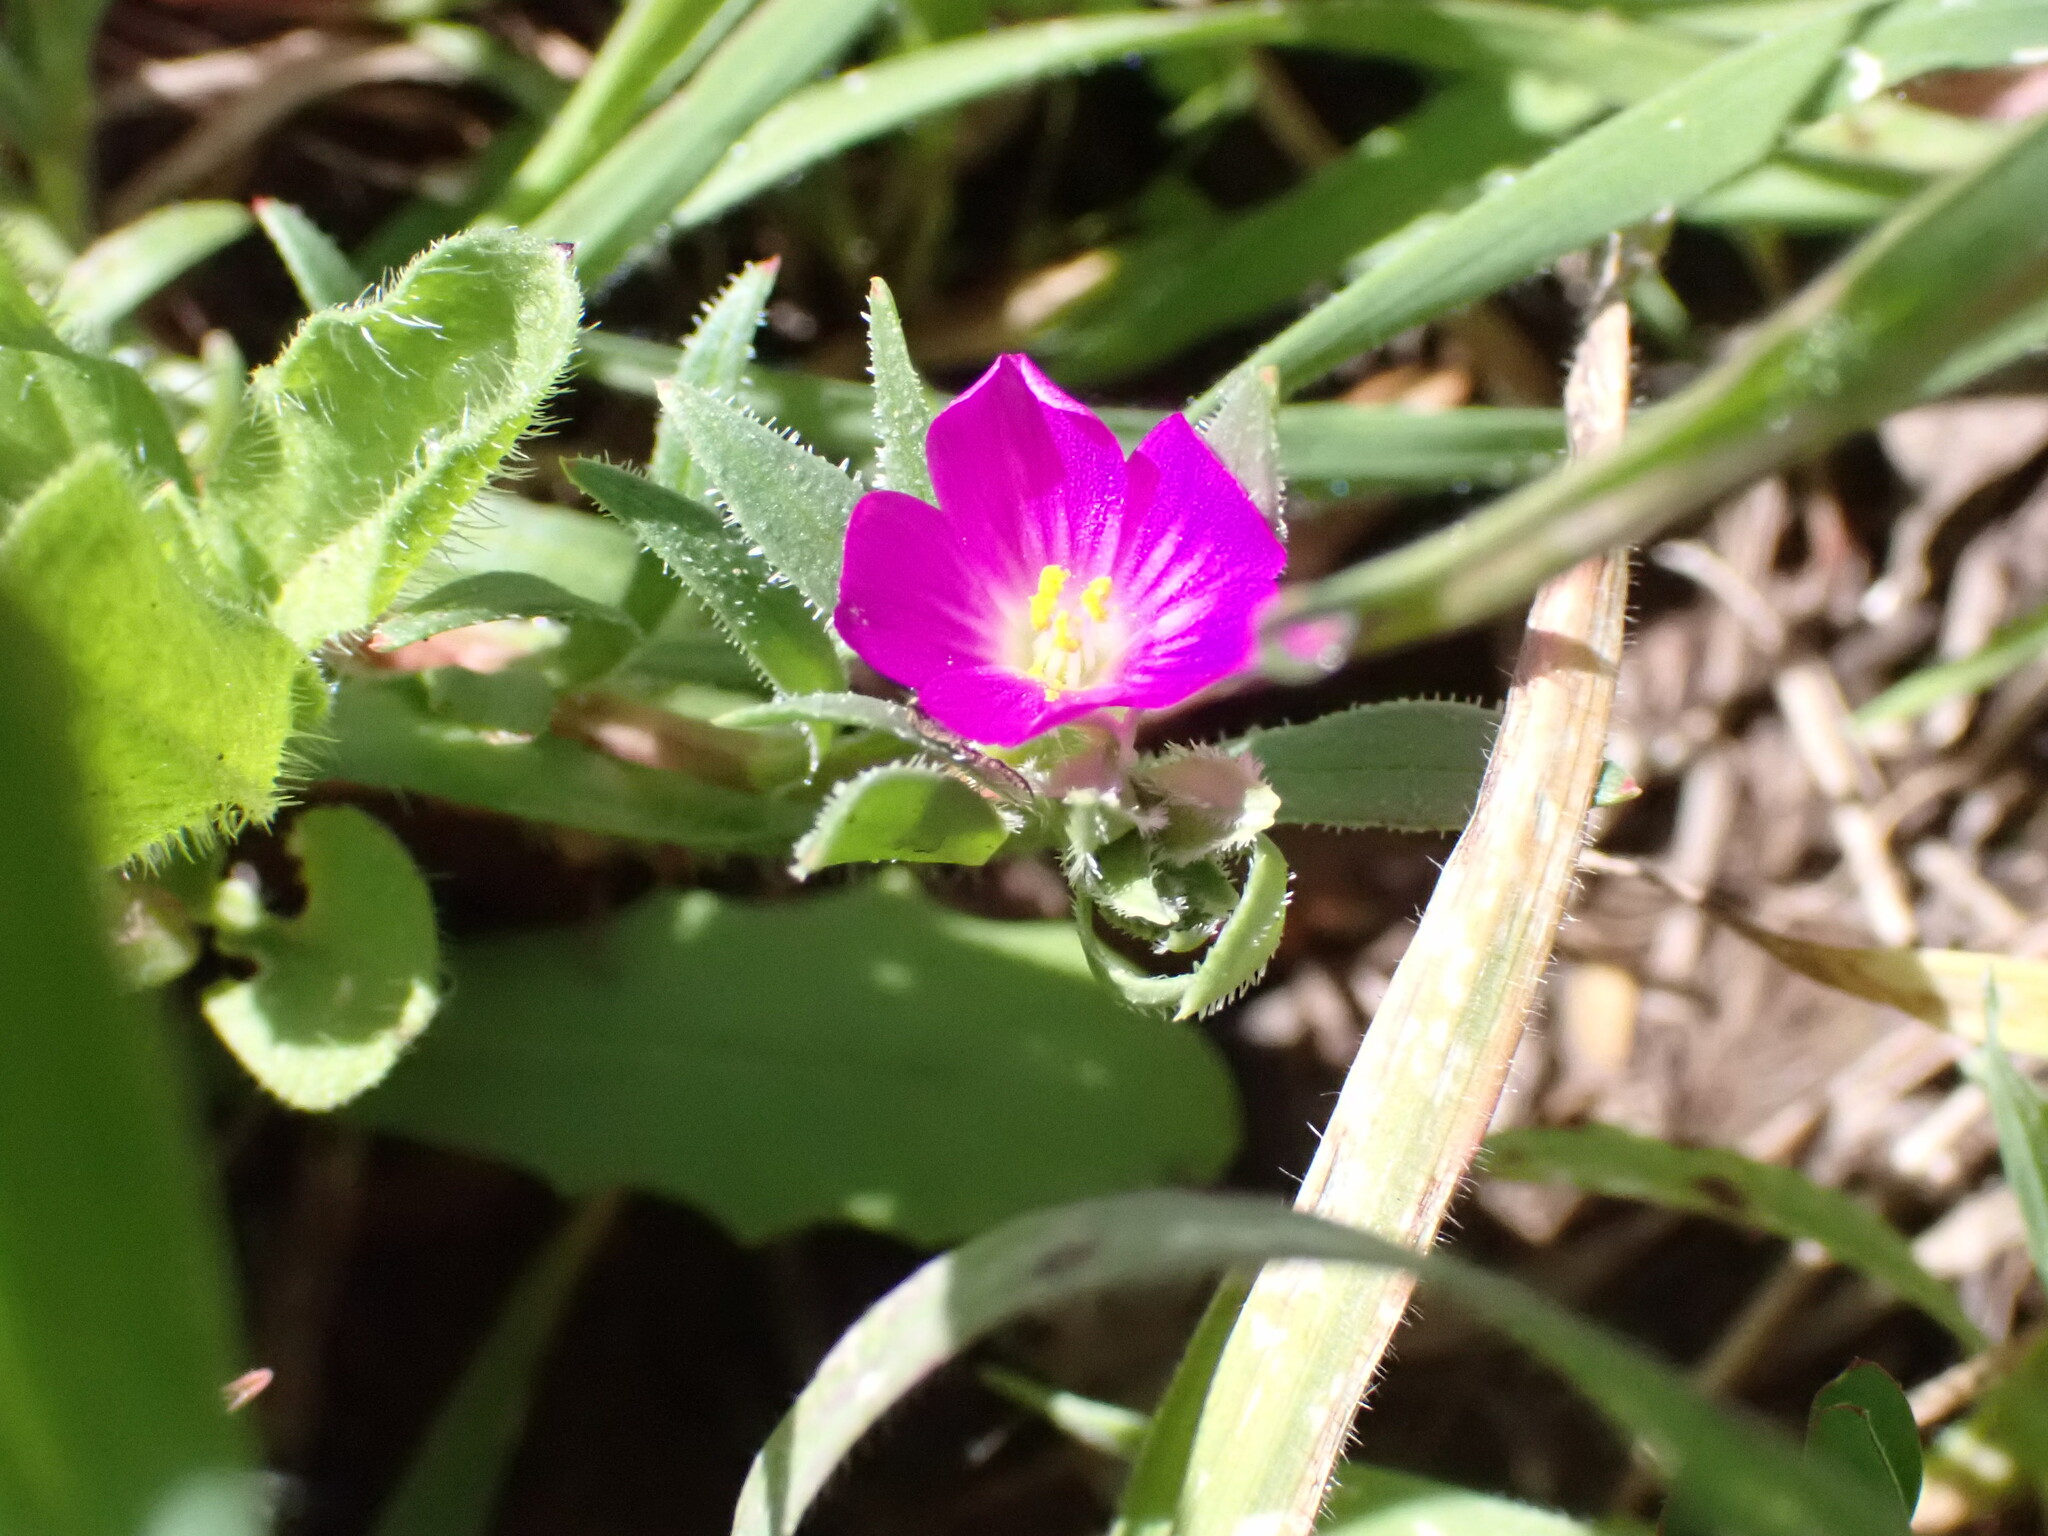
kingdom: Plantae
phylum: Tracheophyta
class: Magnoliopsida
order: Caryophyllales
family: Montiaceae
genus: Calandrinia
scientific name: Calandrinia menziesii
